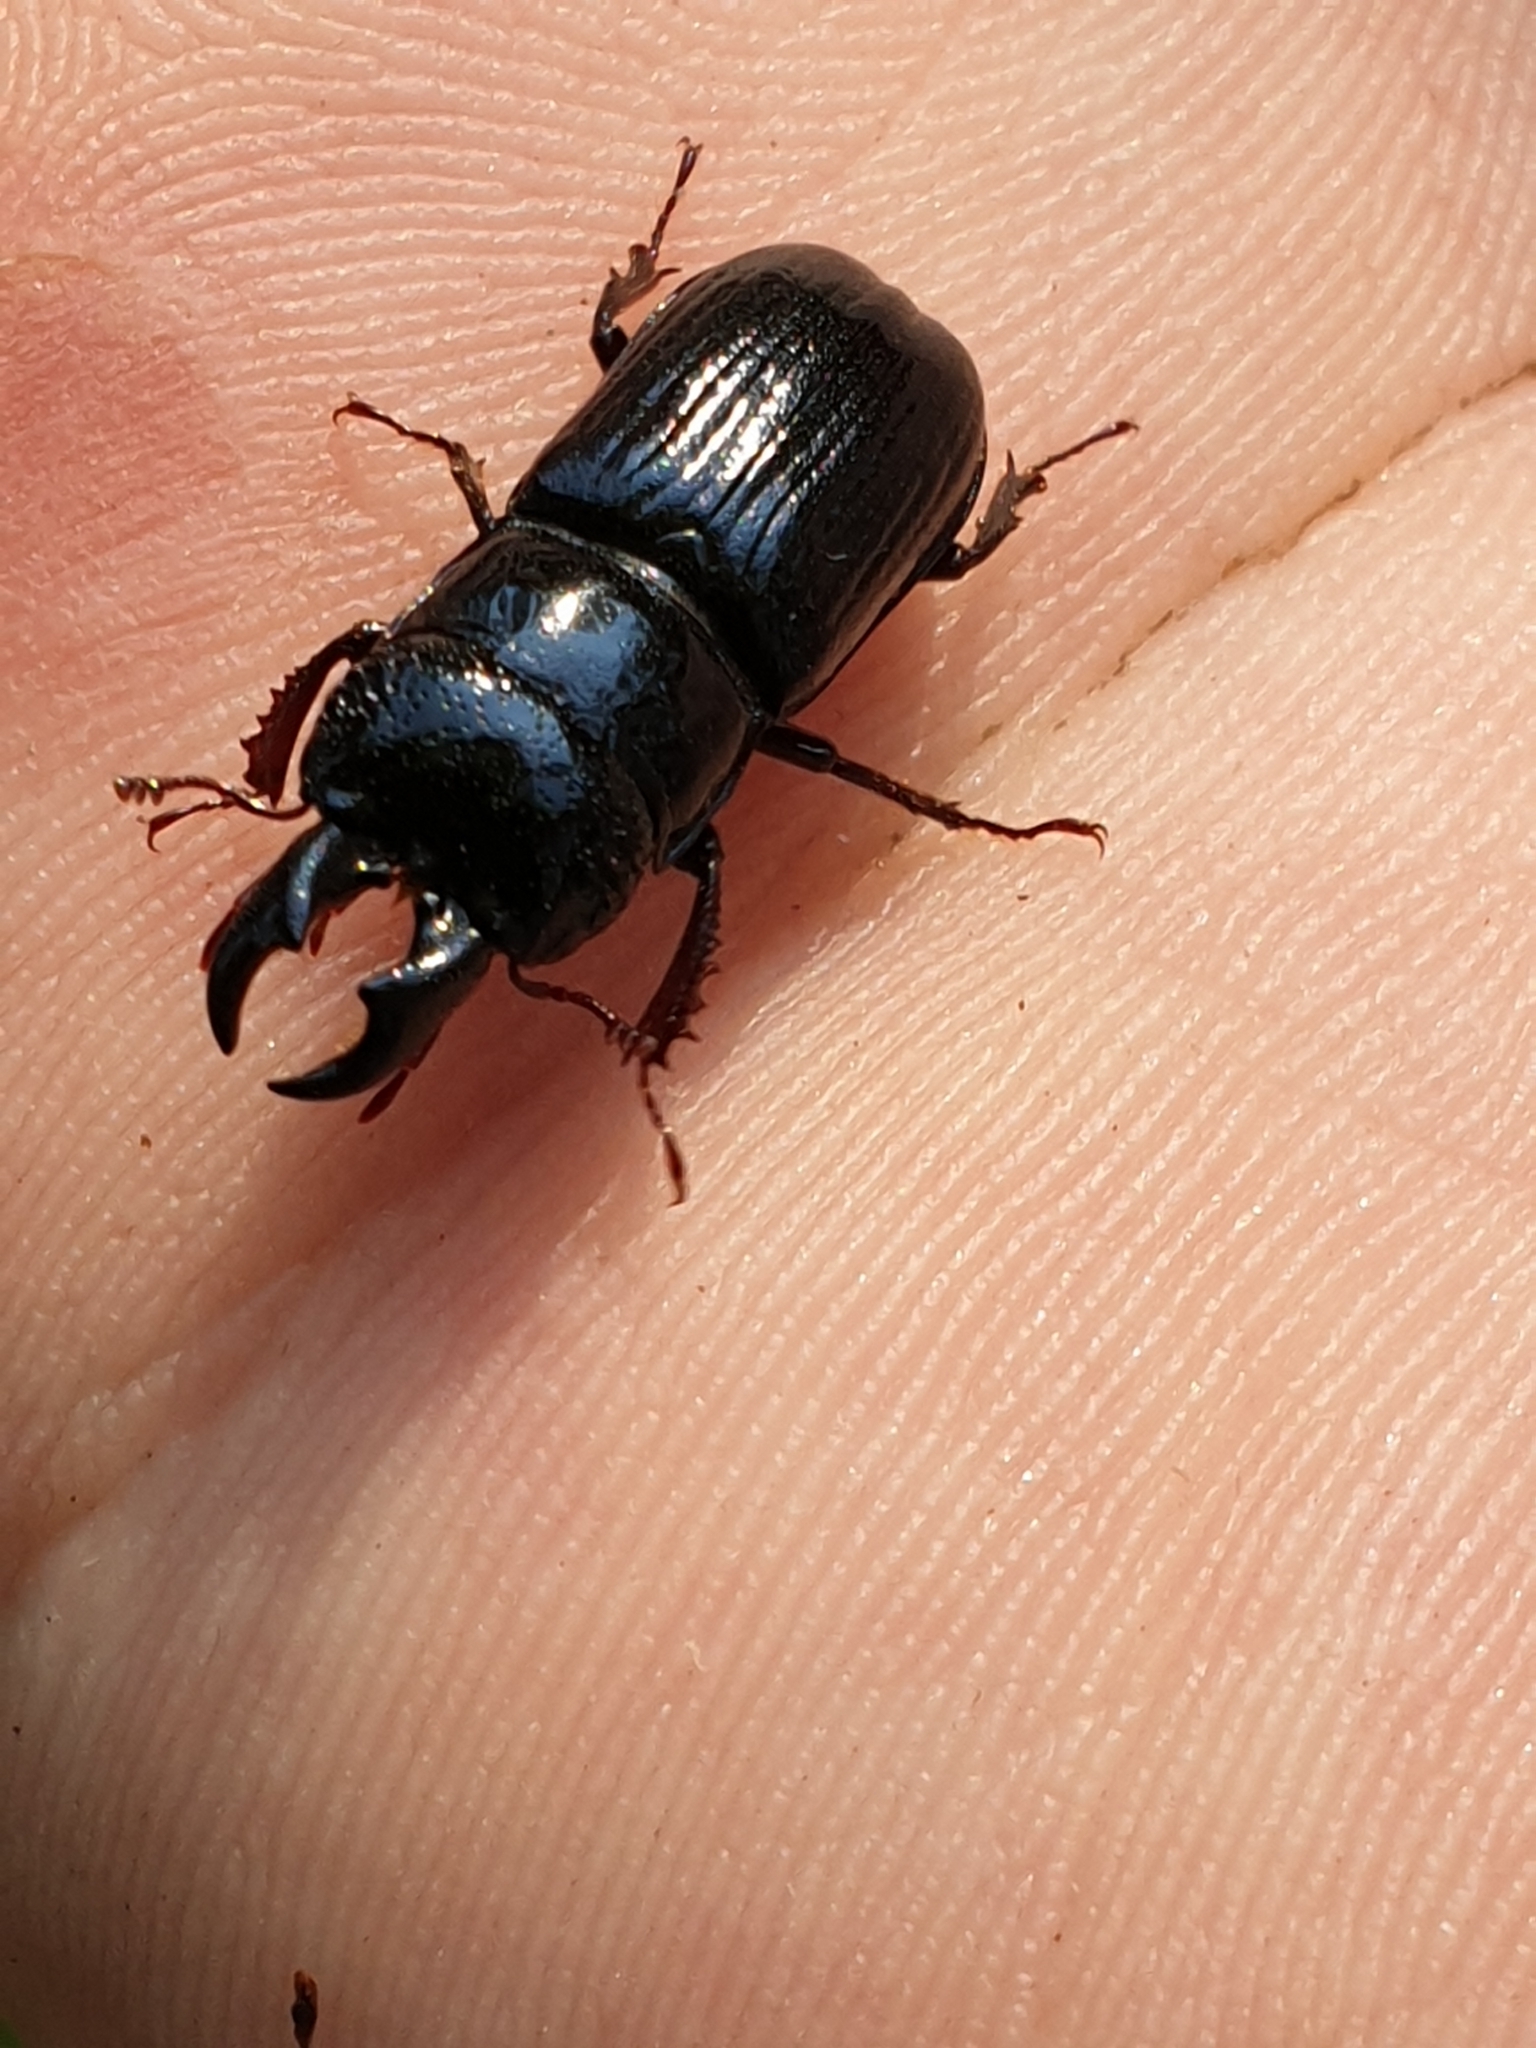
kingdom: Animalia
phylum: Arthropoda
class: Insecta
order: Coleoptera
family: Lucanidae
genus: Ceruchus
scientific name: Ceruchus chrysomelinus
